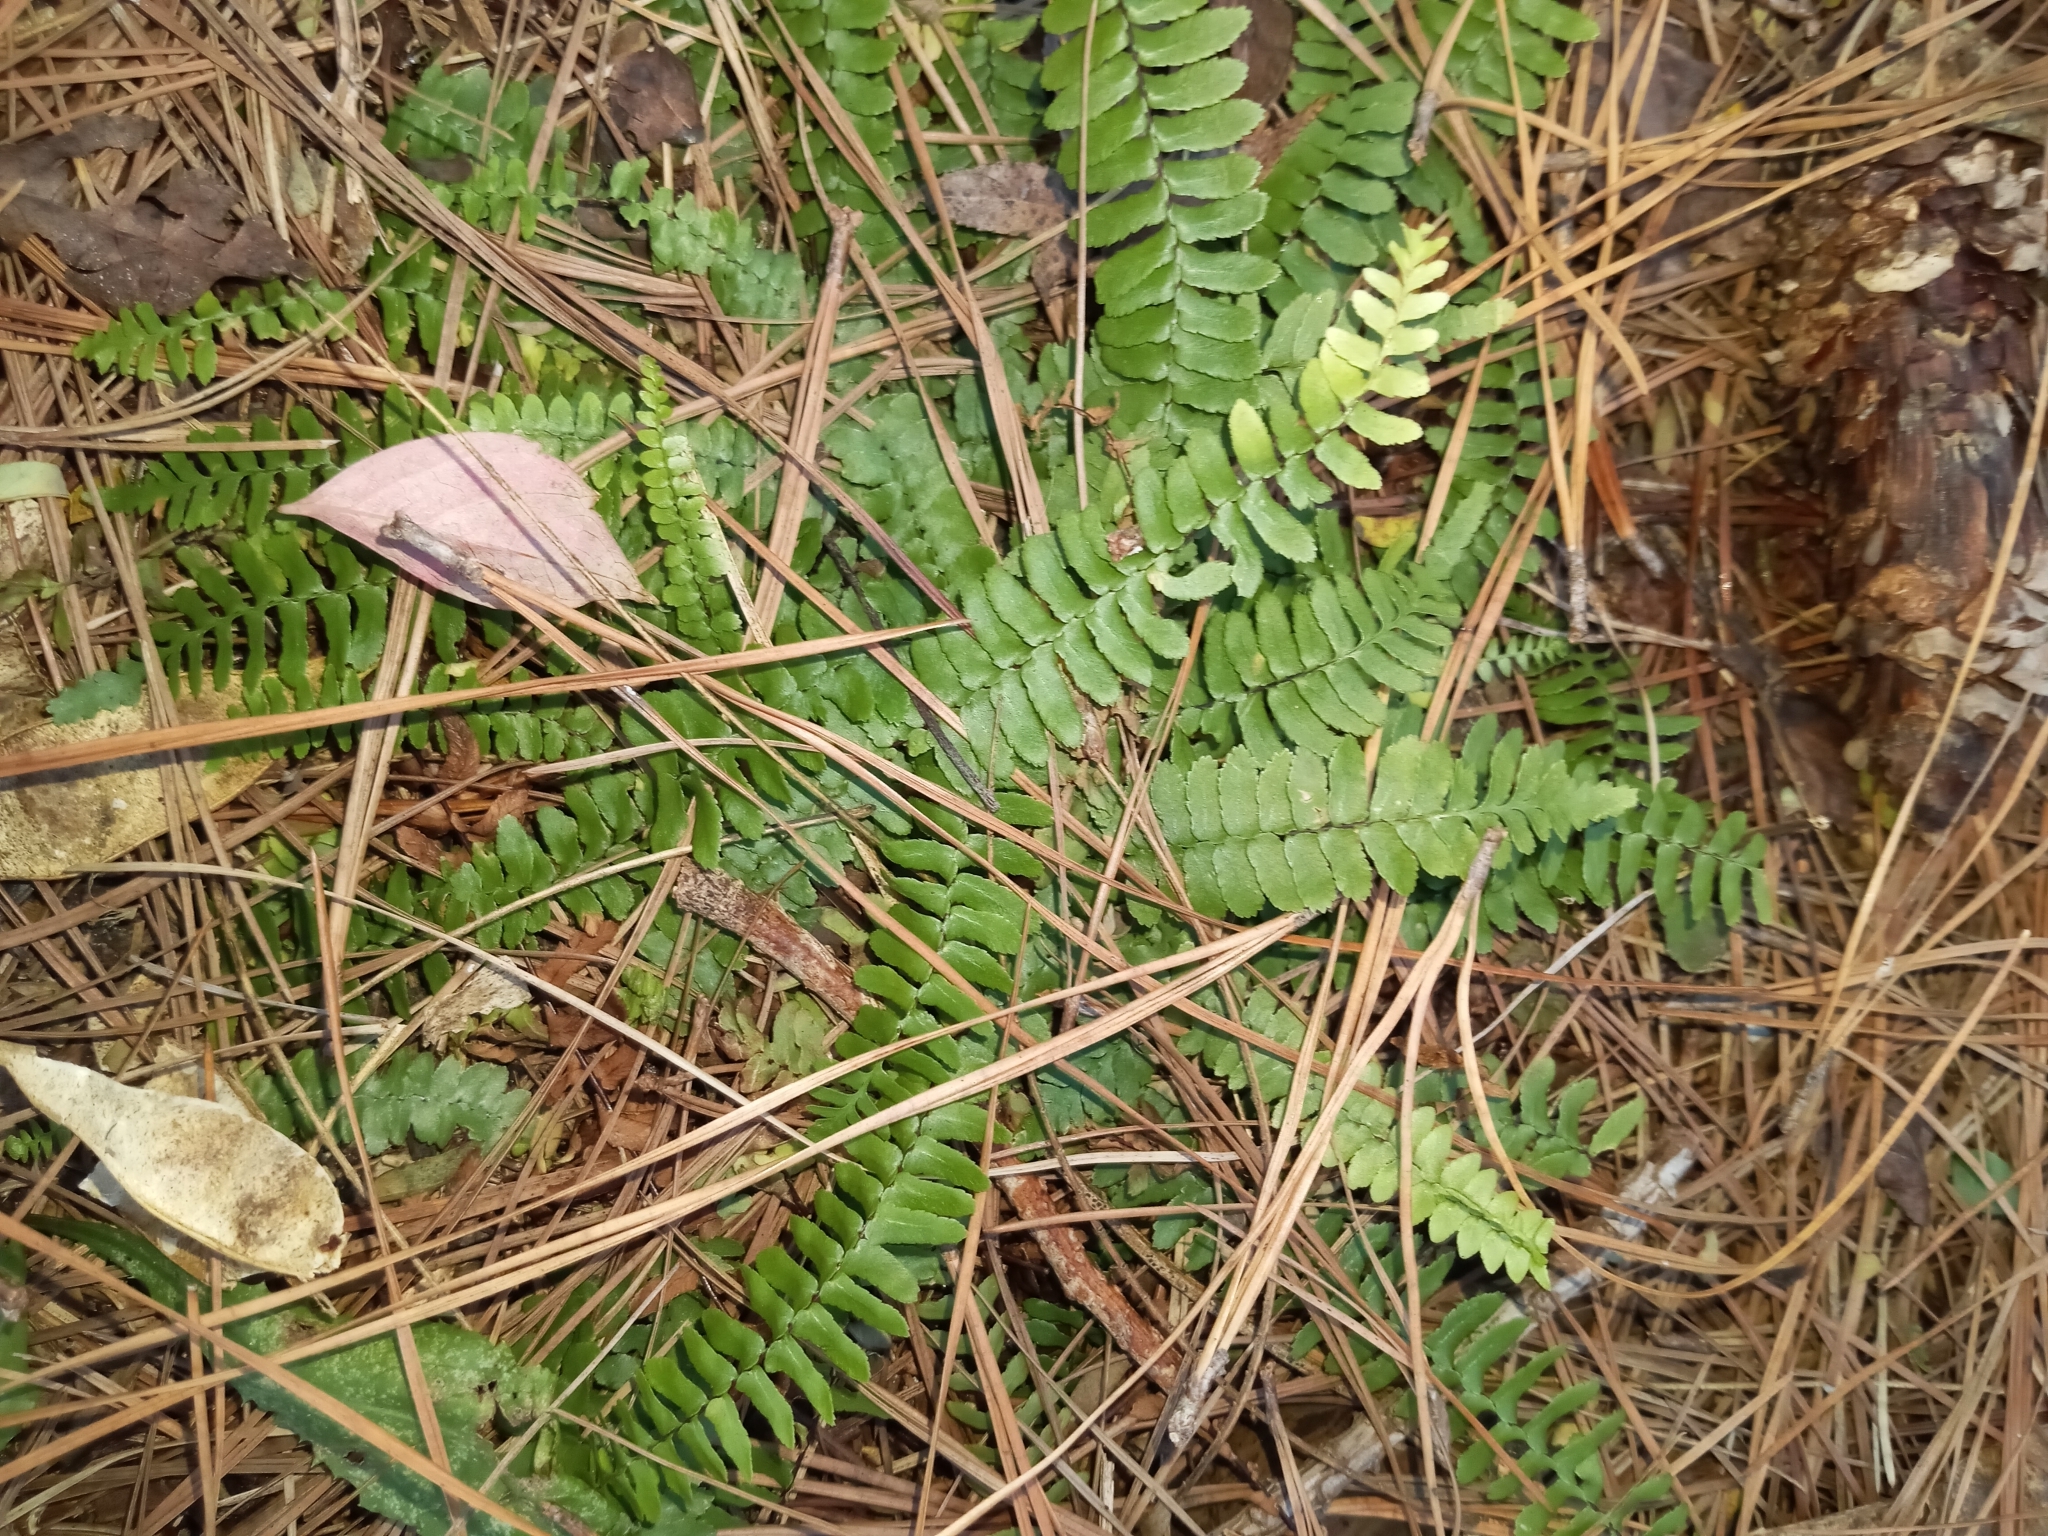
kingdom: Plantae
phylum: Tracheophyta
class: Polypodiopsida
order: Polypodiales
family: Aspleniaceae
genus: Asplenium
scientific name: Asplenium platyneuron
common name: Ebony spleenwort
